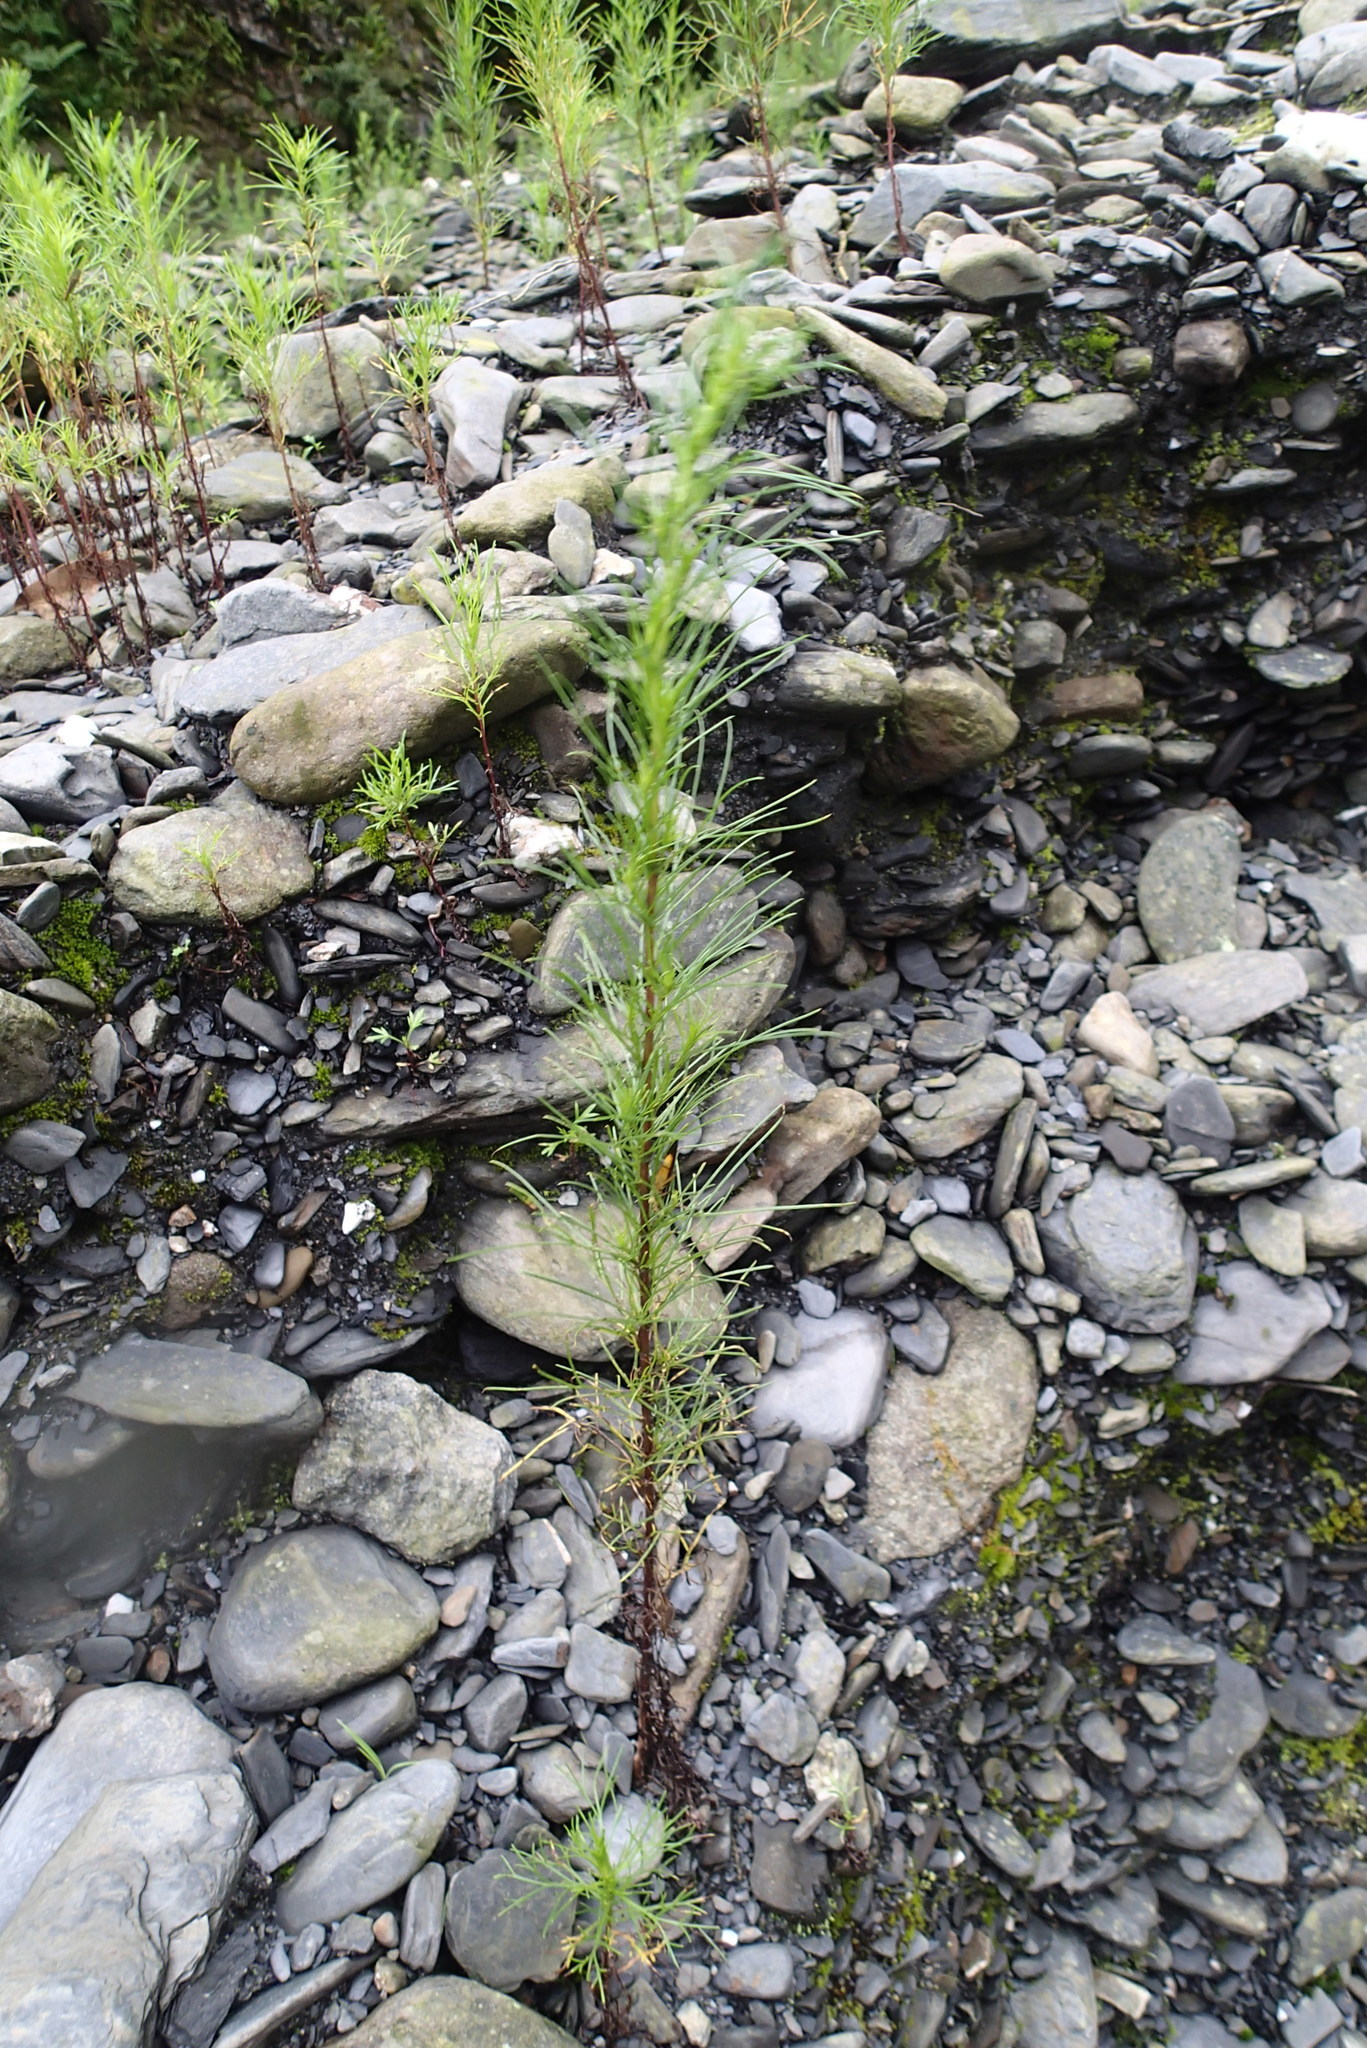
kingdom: Plantae
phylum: Tracheophyta
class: Magnoliopsida
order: Asterales
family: Asteraceae
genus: Artemisia
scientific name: Artemisia capillaris
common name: Yin-chen wormwood
